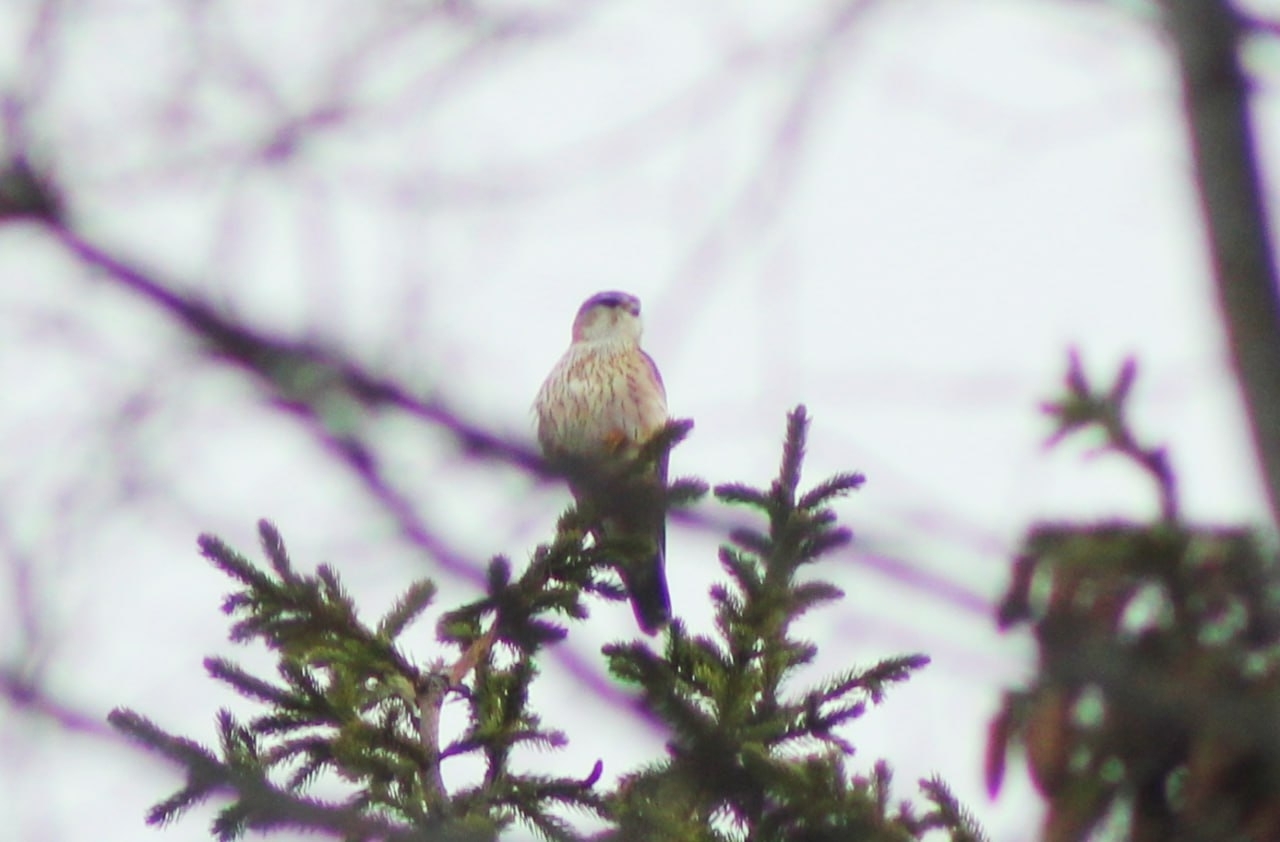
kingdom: Animalia
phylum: Chordata
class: Aves
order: Falconiformes
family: Falconidae
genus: Falco
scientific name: Falco tinnunculus
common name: Common kestrel
